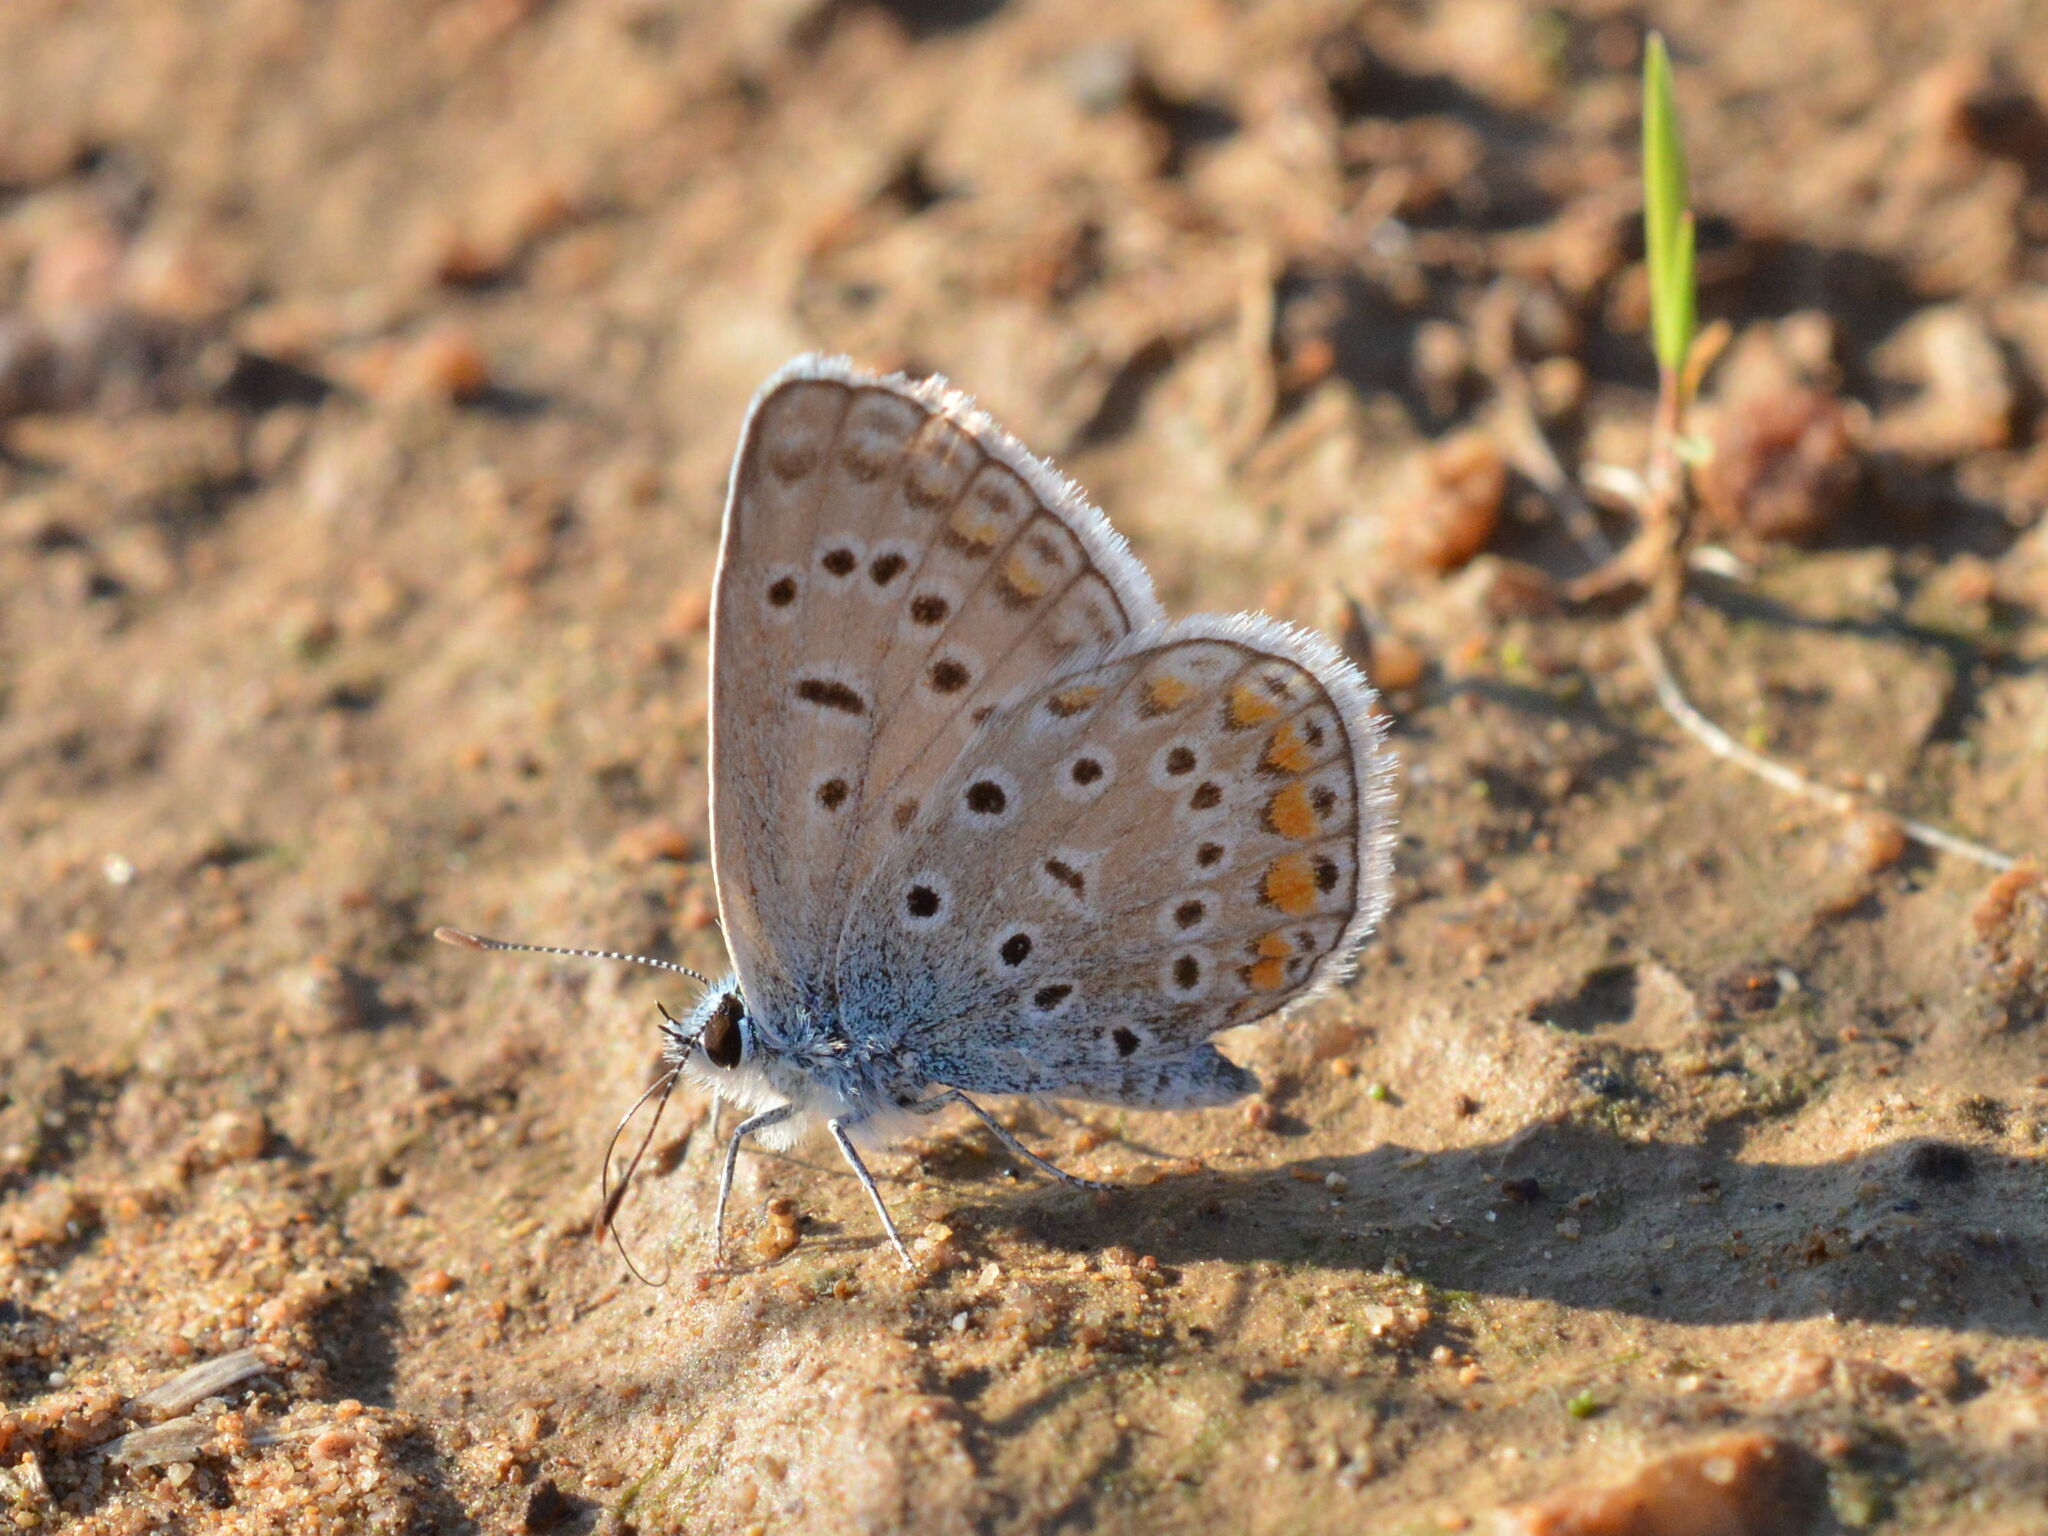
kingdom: Animalia
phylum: Arthropoda
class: Insecta
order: Lepidoptera
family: Lycaenidae
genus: Polyommatus
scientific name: Polyommatus icarus
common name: Common blue
